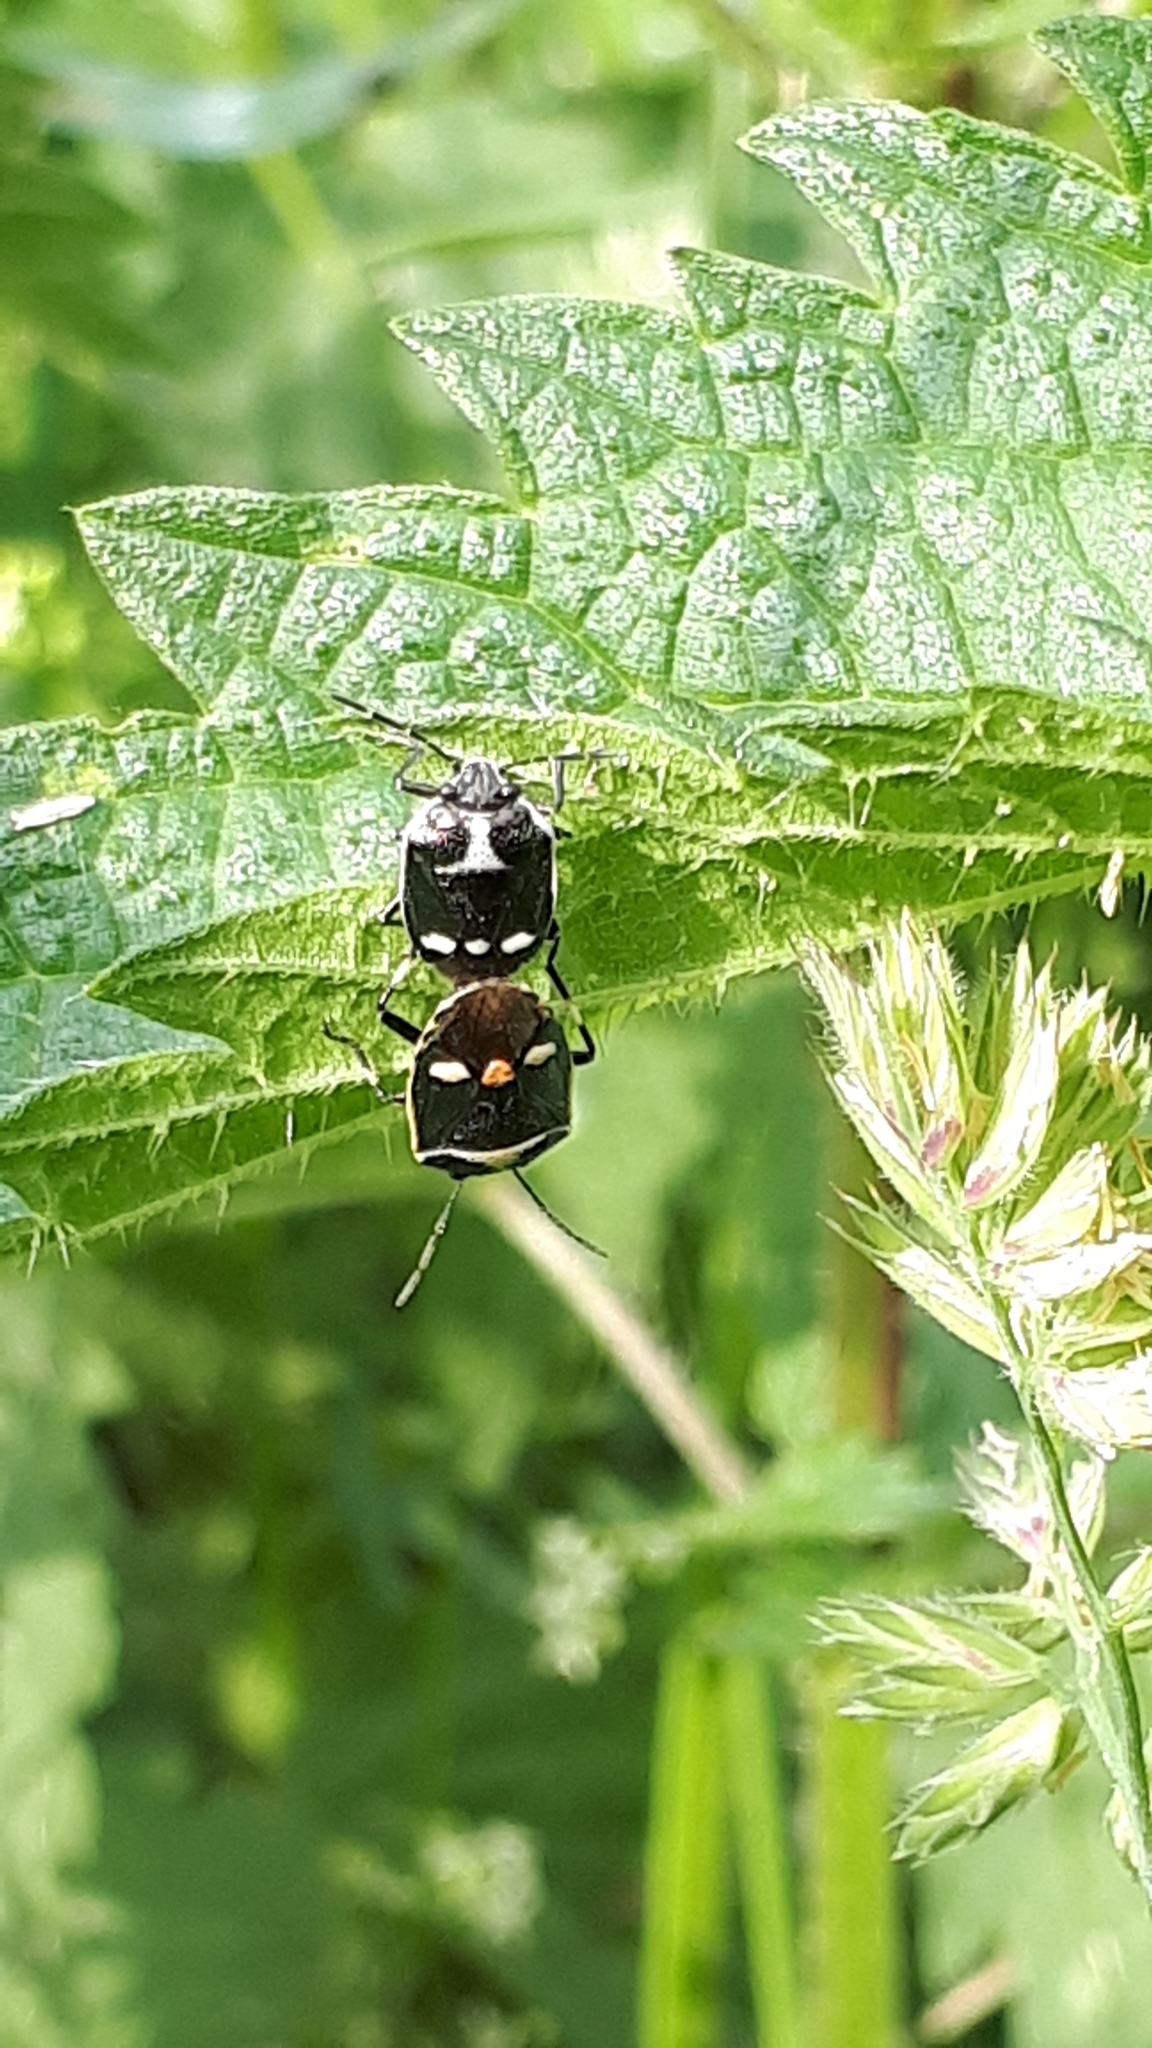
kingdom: Animalia
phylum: Arthropoda
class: Insecta
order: Hemiptera
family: Pentatomidae
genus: Eurydema
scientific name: Eurydema oleracea
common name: Cabbage bug
